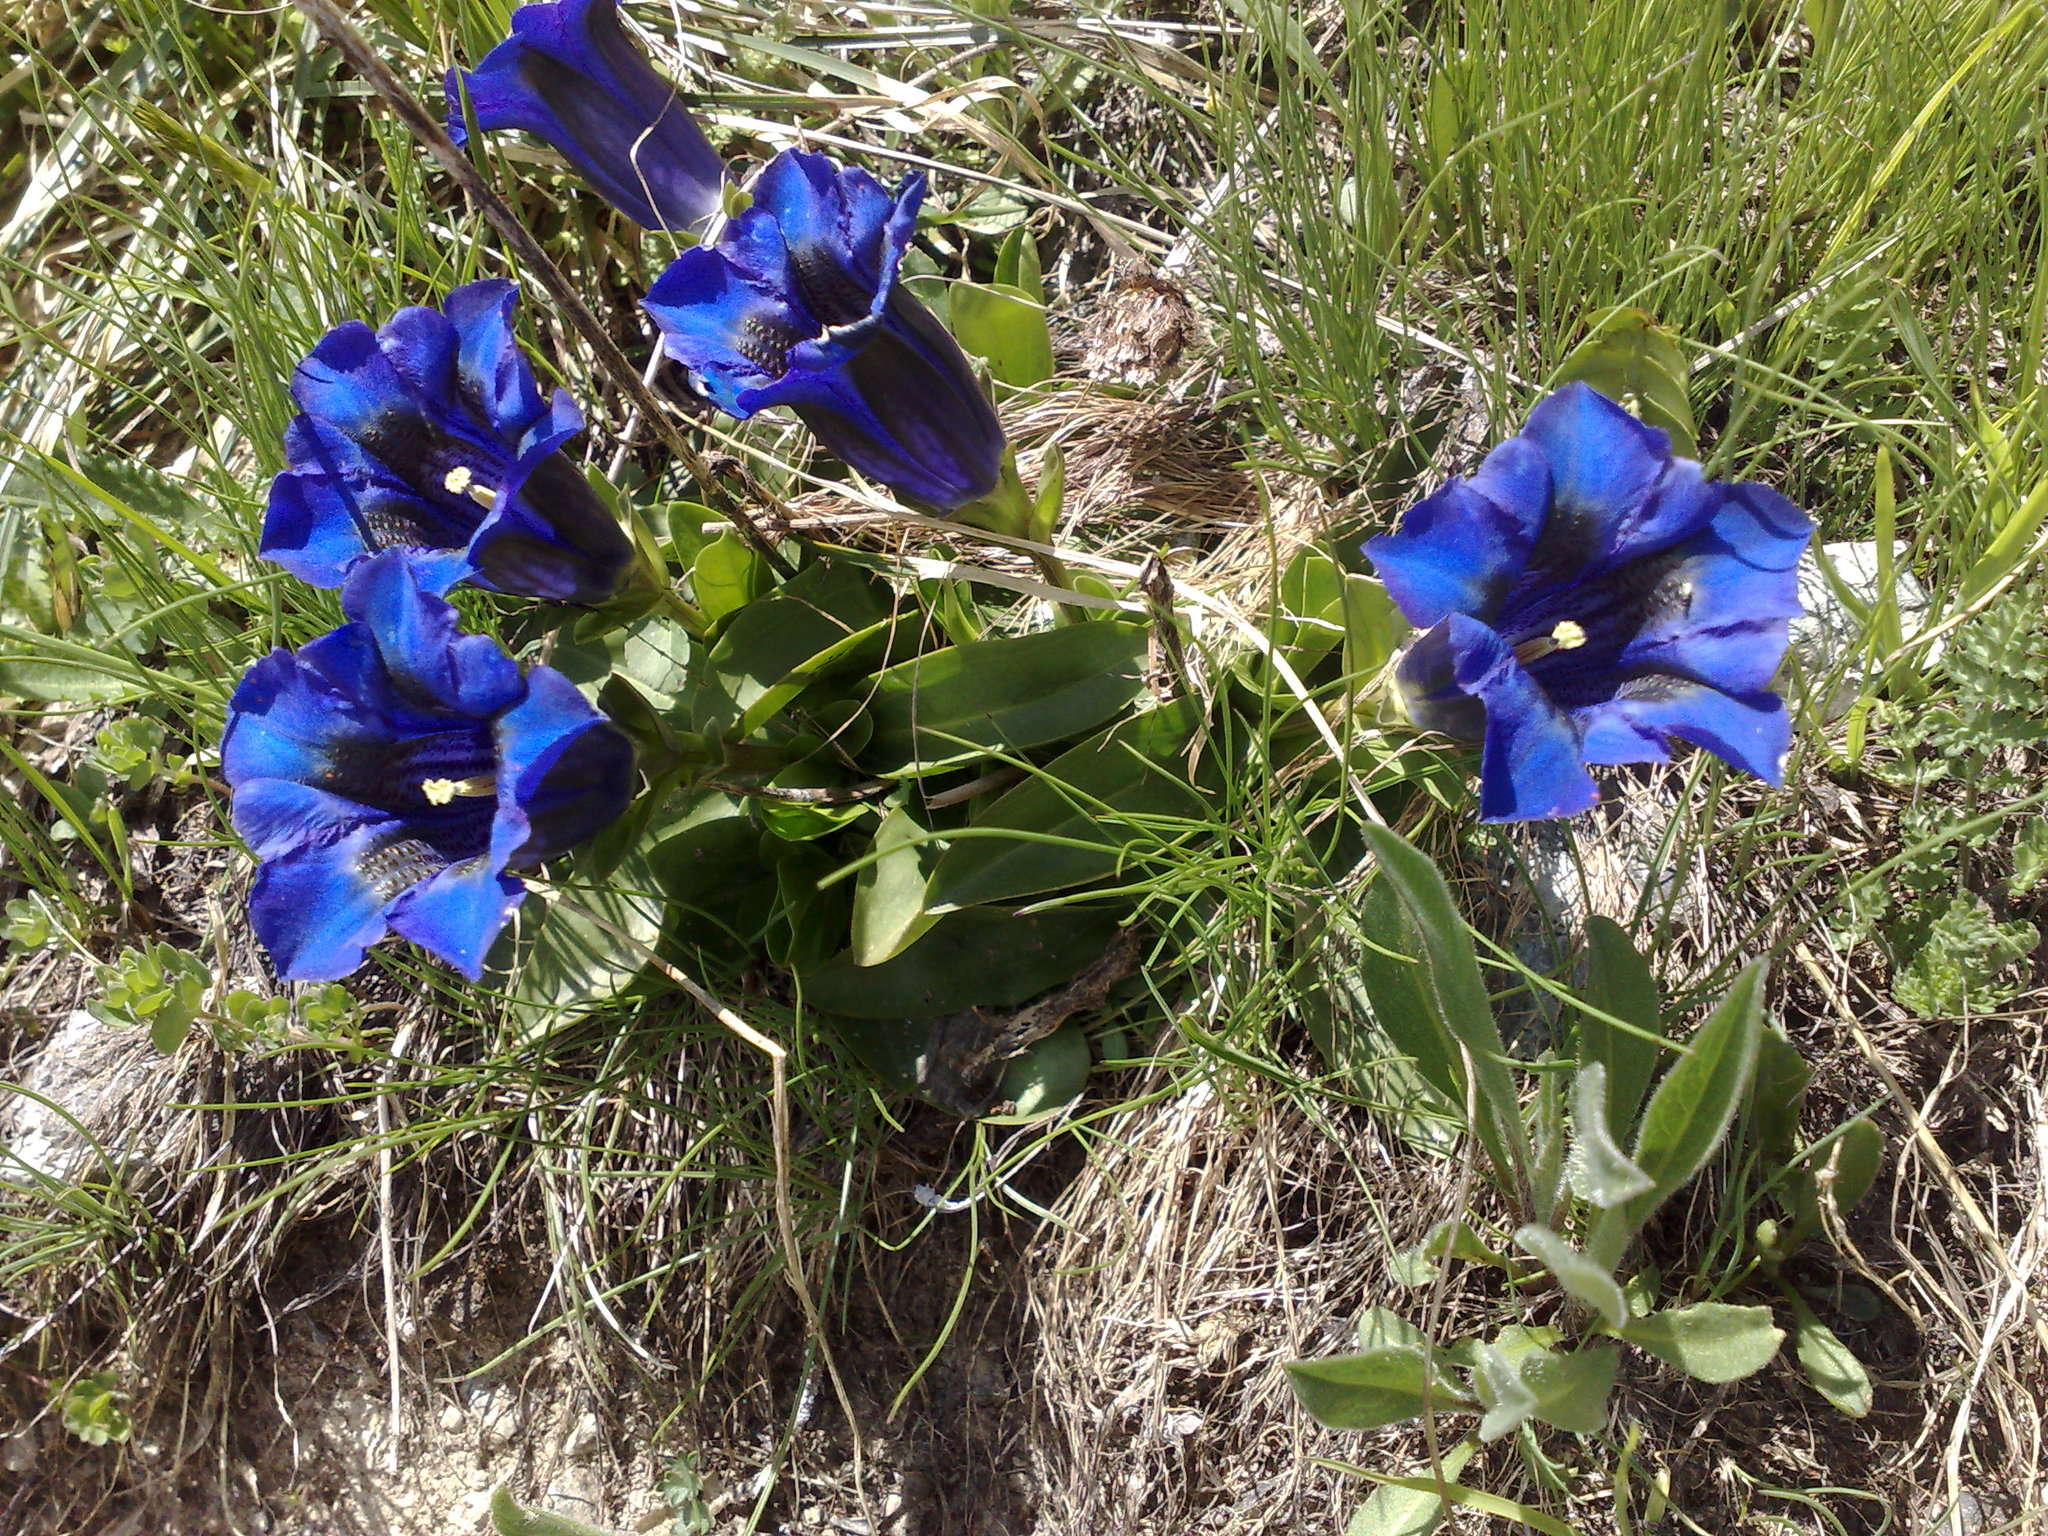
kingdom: Plantae
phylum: Tracheophyta
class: Magnoliopsida
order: Gentianales
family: Gentianaceae
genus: Gentiana
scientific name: Gentiana acaulis
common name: Trumpet gentian
